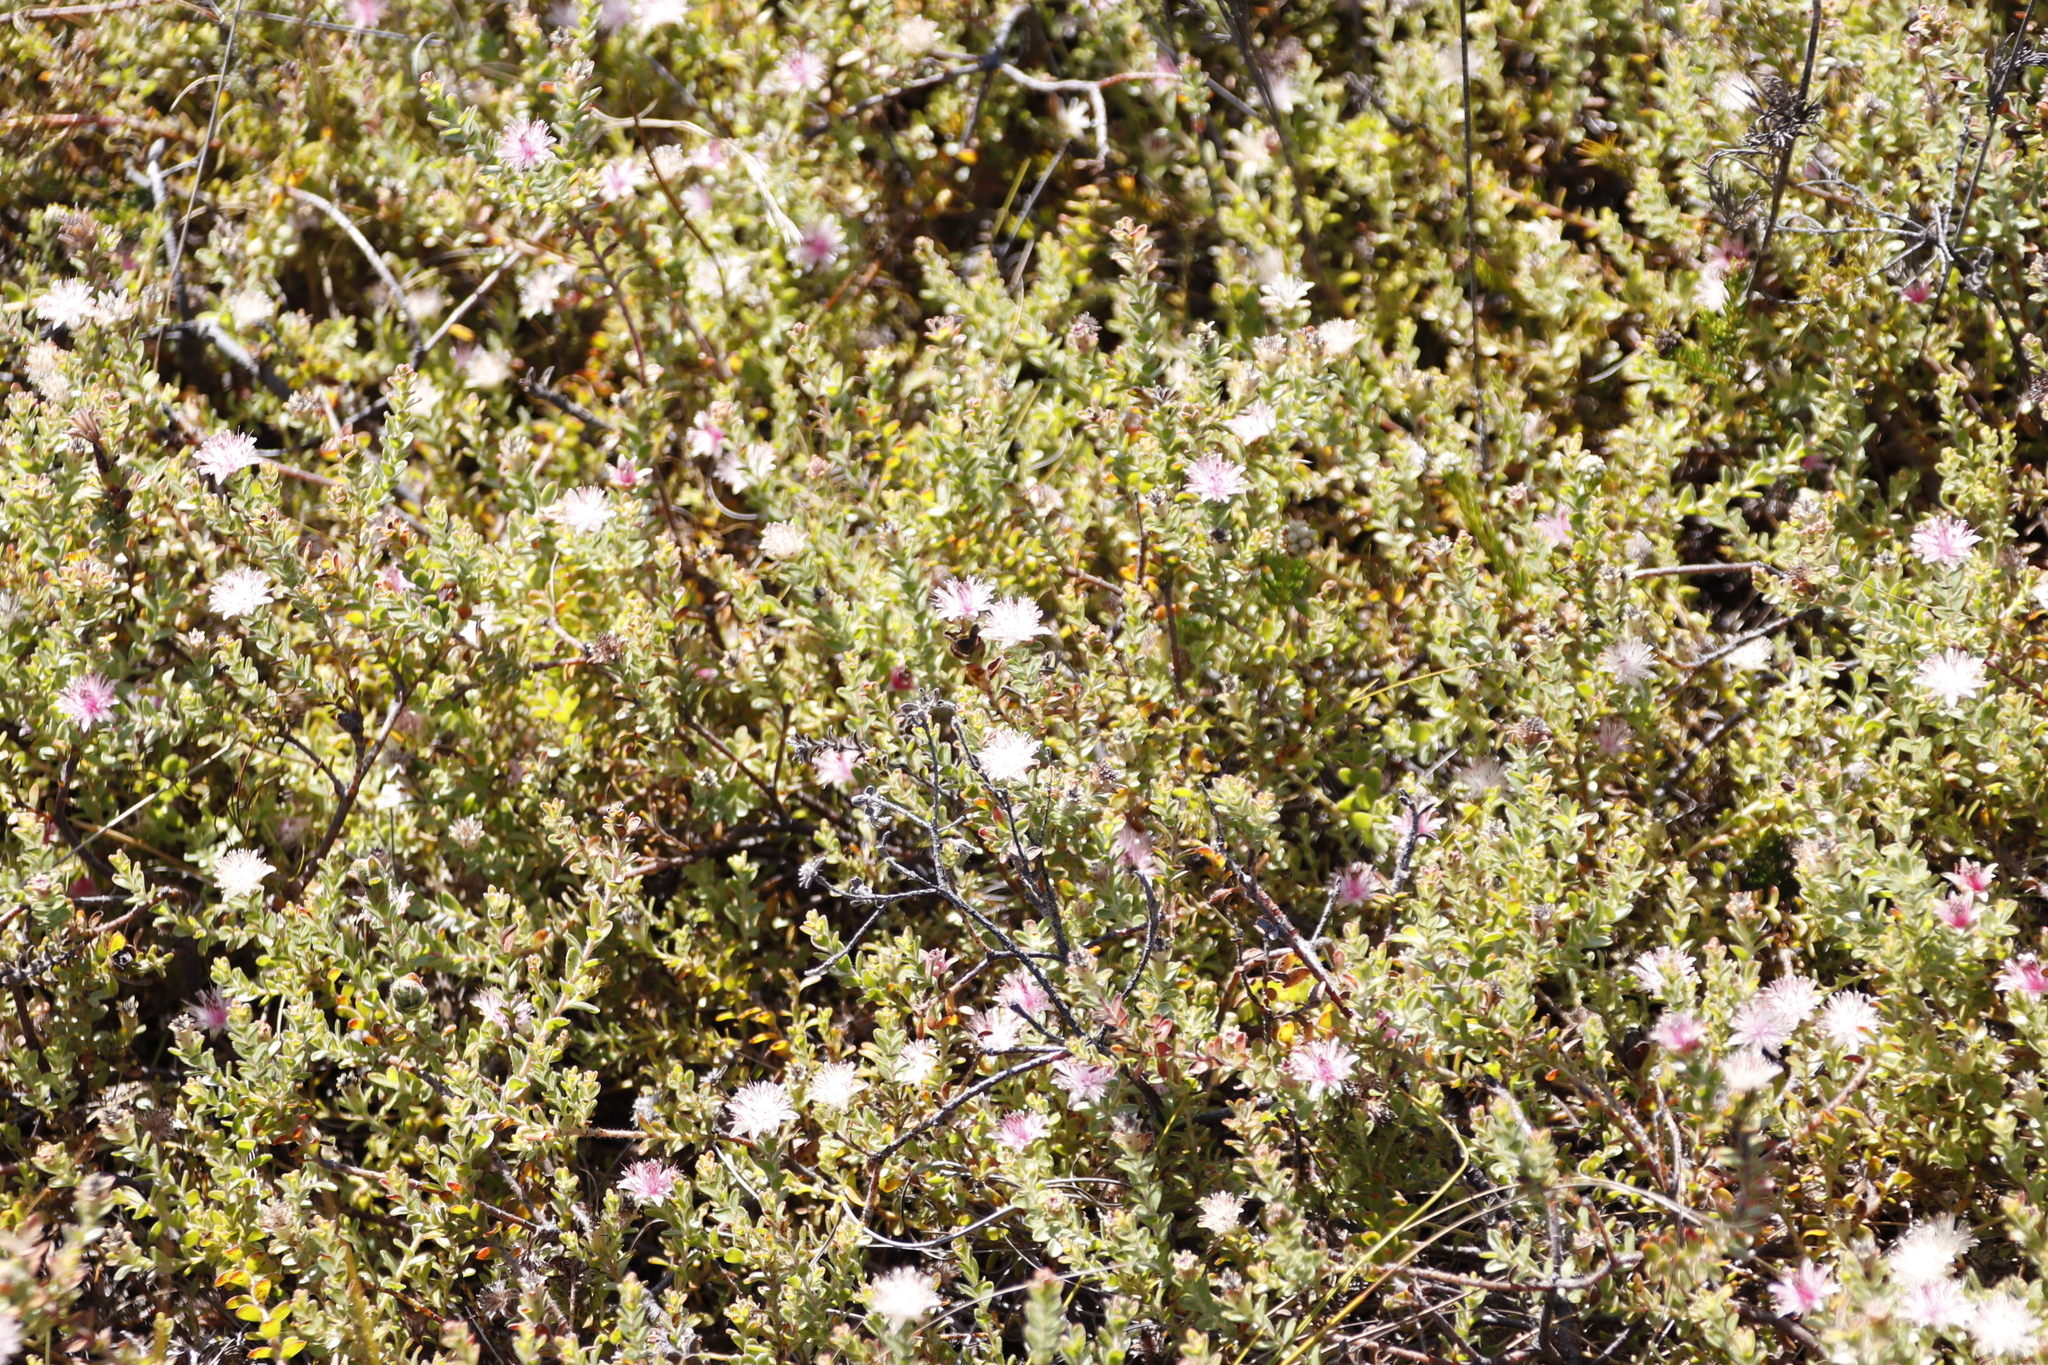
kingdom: Plantae
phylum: Tracheophyta
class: Magnoliopsida
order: Proteales
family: Proteaceae
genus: Diastella
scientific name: Diastella divaricata
